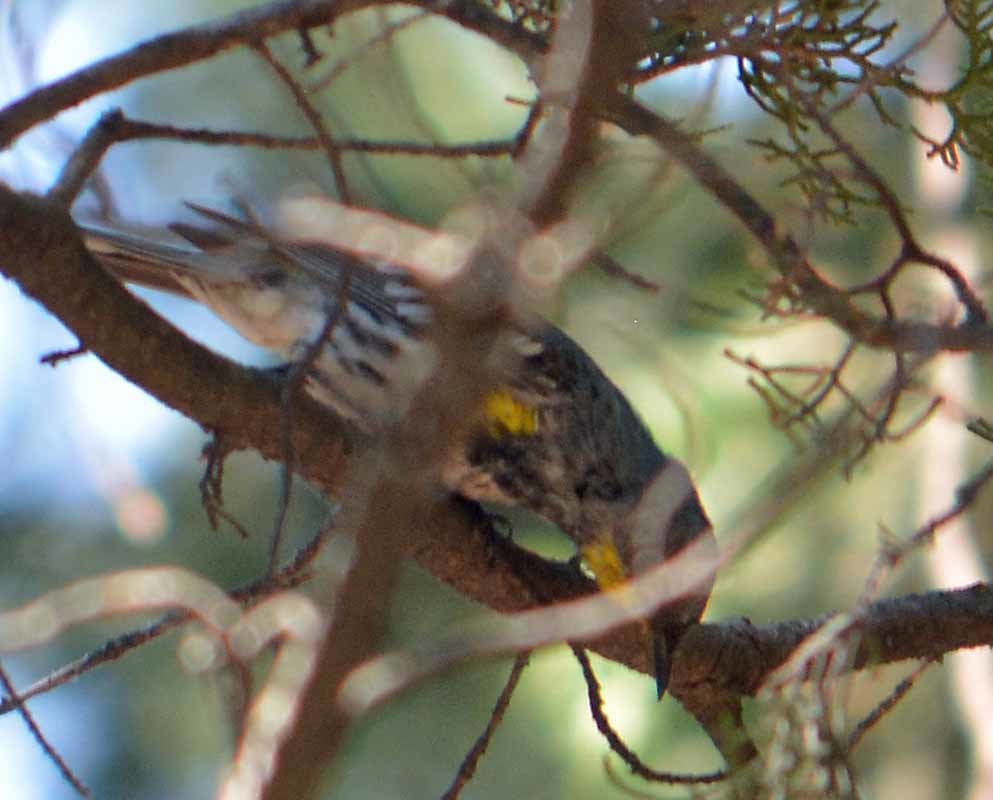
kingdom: Animalia
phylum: Chordata
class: Aves
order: Passeriformes
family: Parulidae
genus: Setophaga
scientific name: Setophaga coronata
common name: Myrtle warbler
